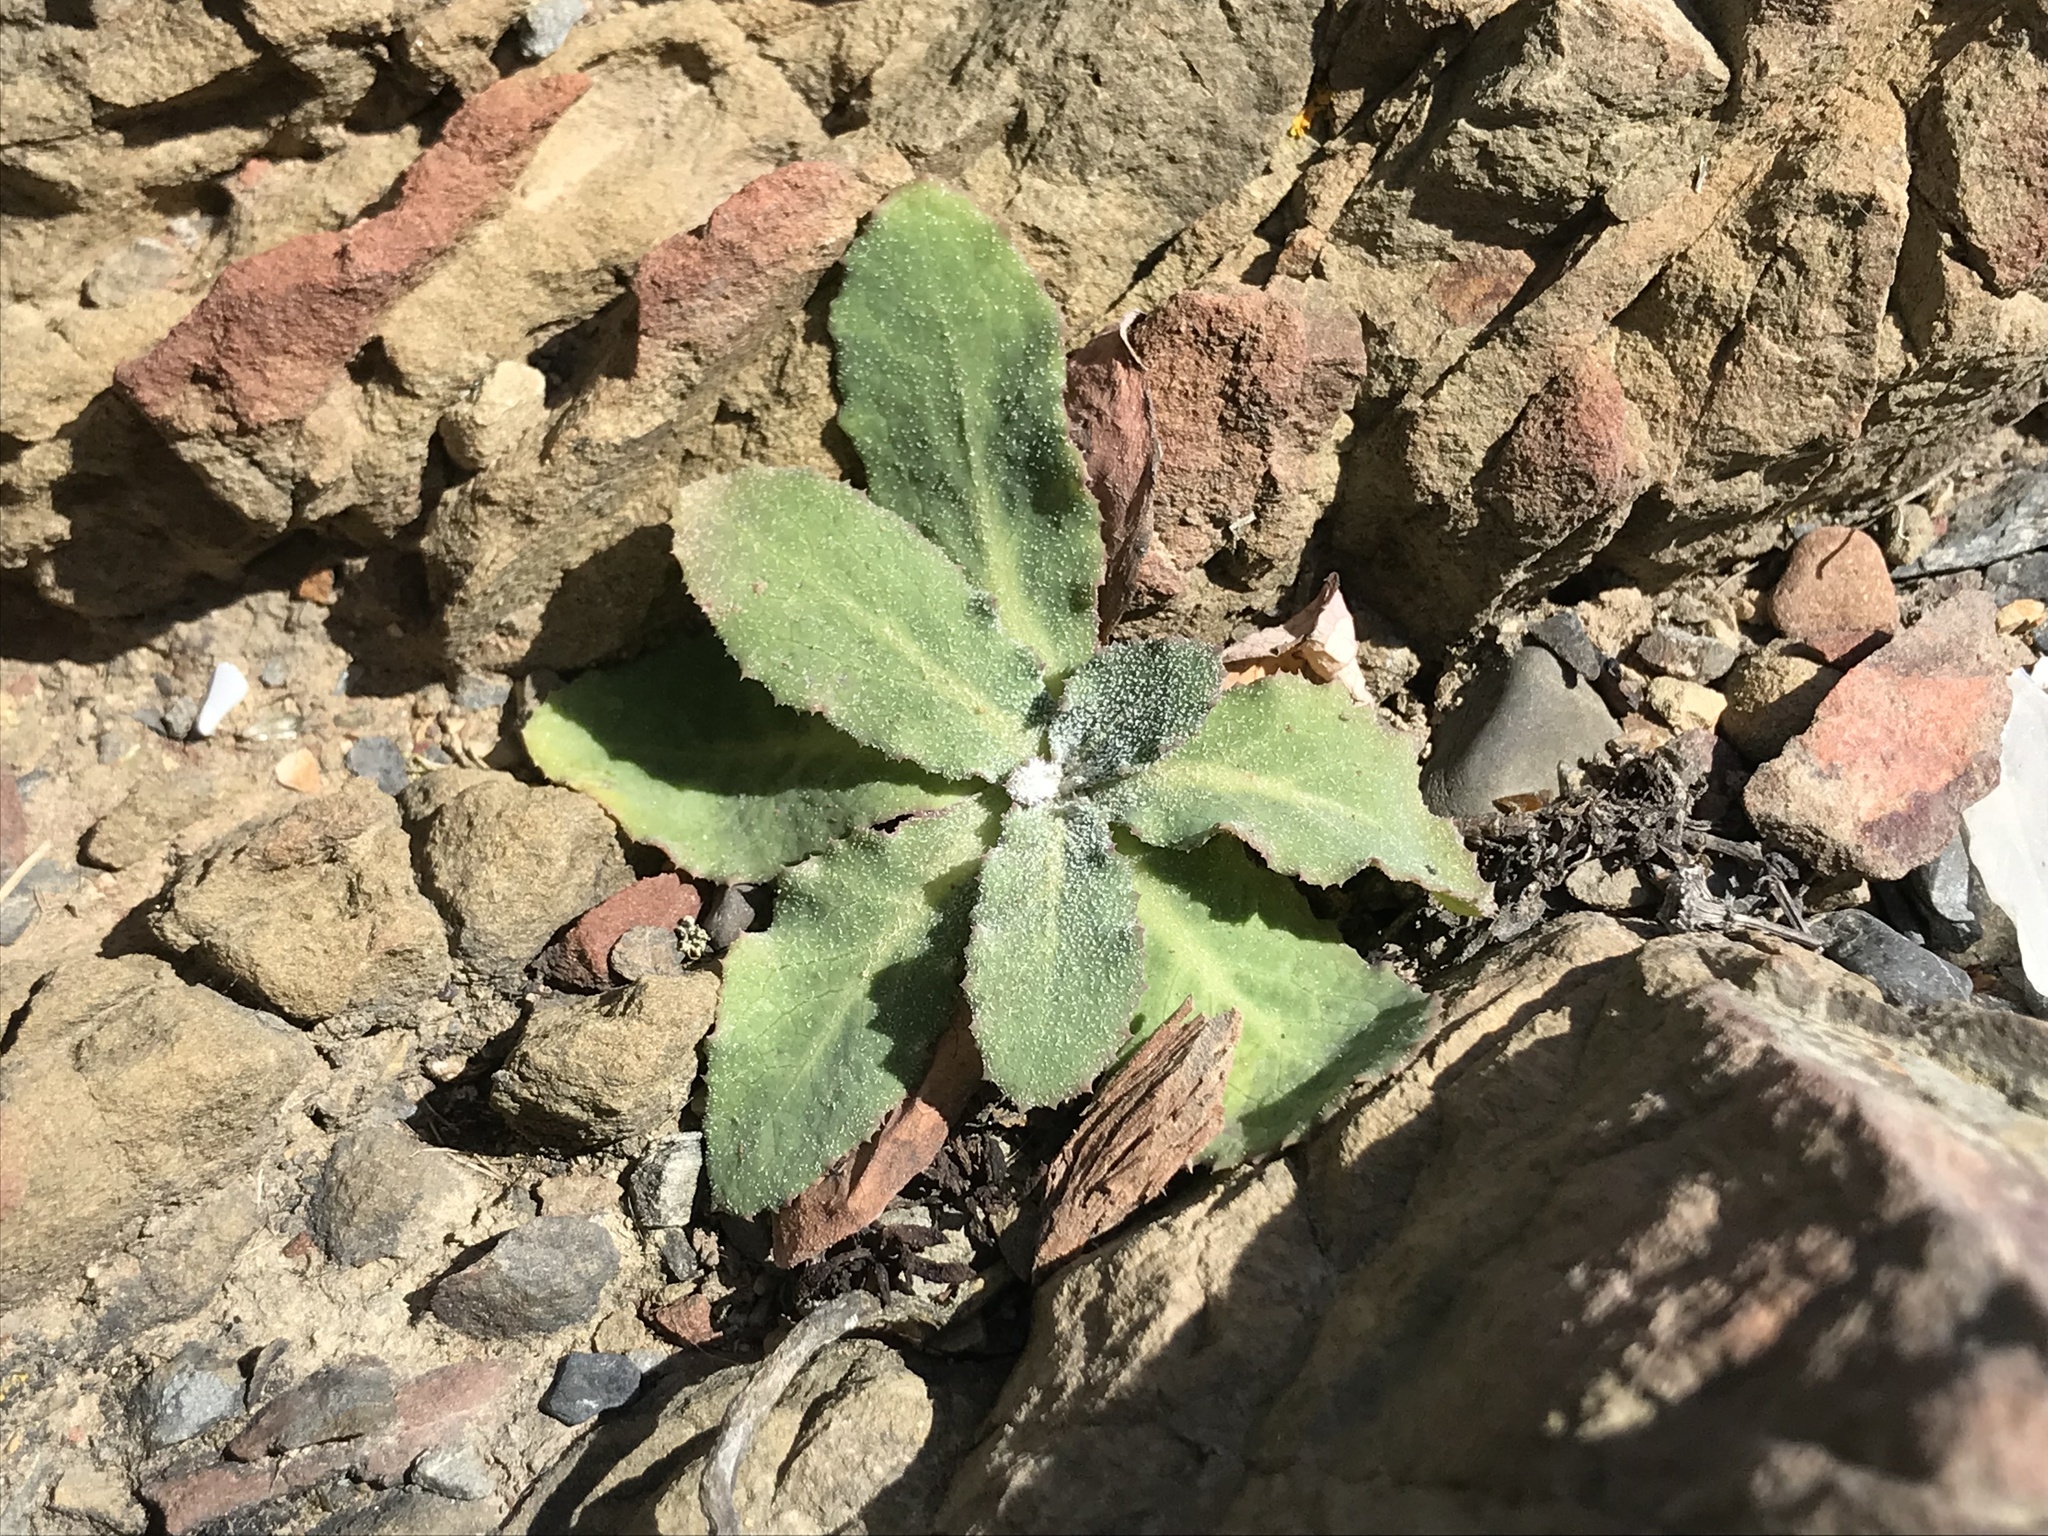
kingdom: Plantae
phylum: Tracheophyta
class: Magnoliopsida
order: Asterales
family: Asteraceae
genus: Sonchus
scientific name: Sonchus kirkii
